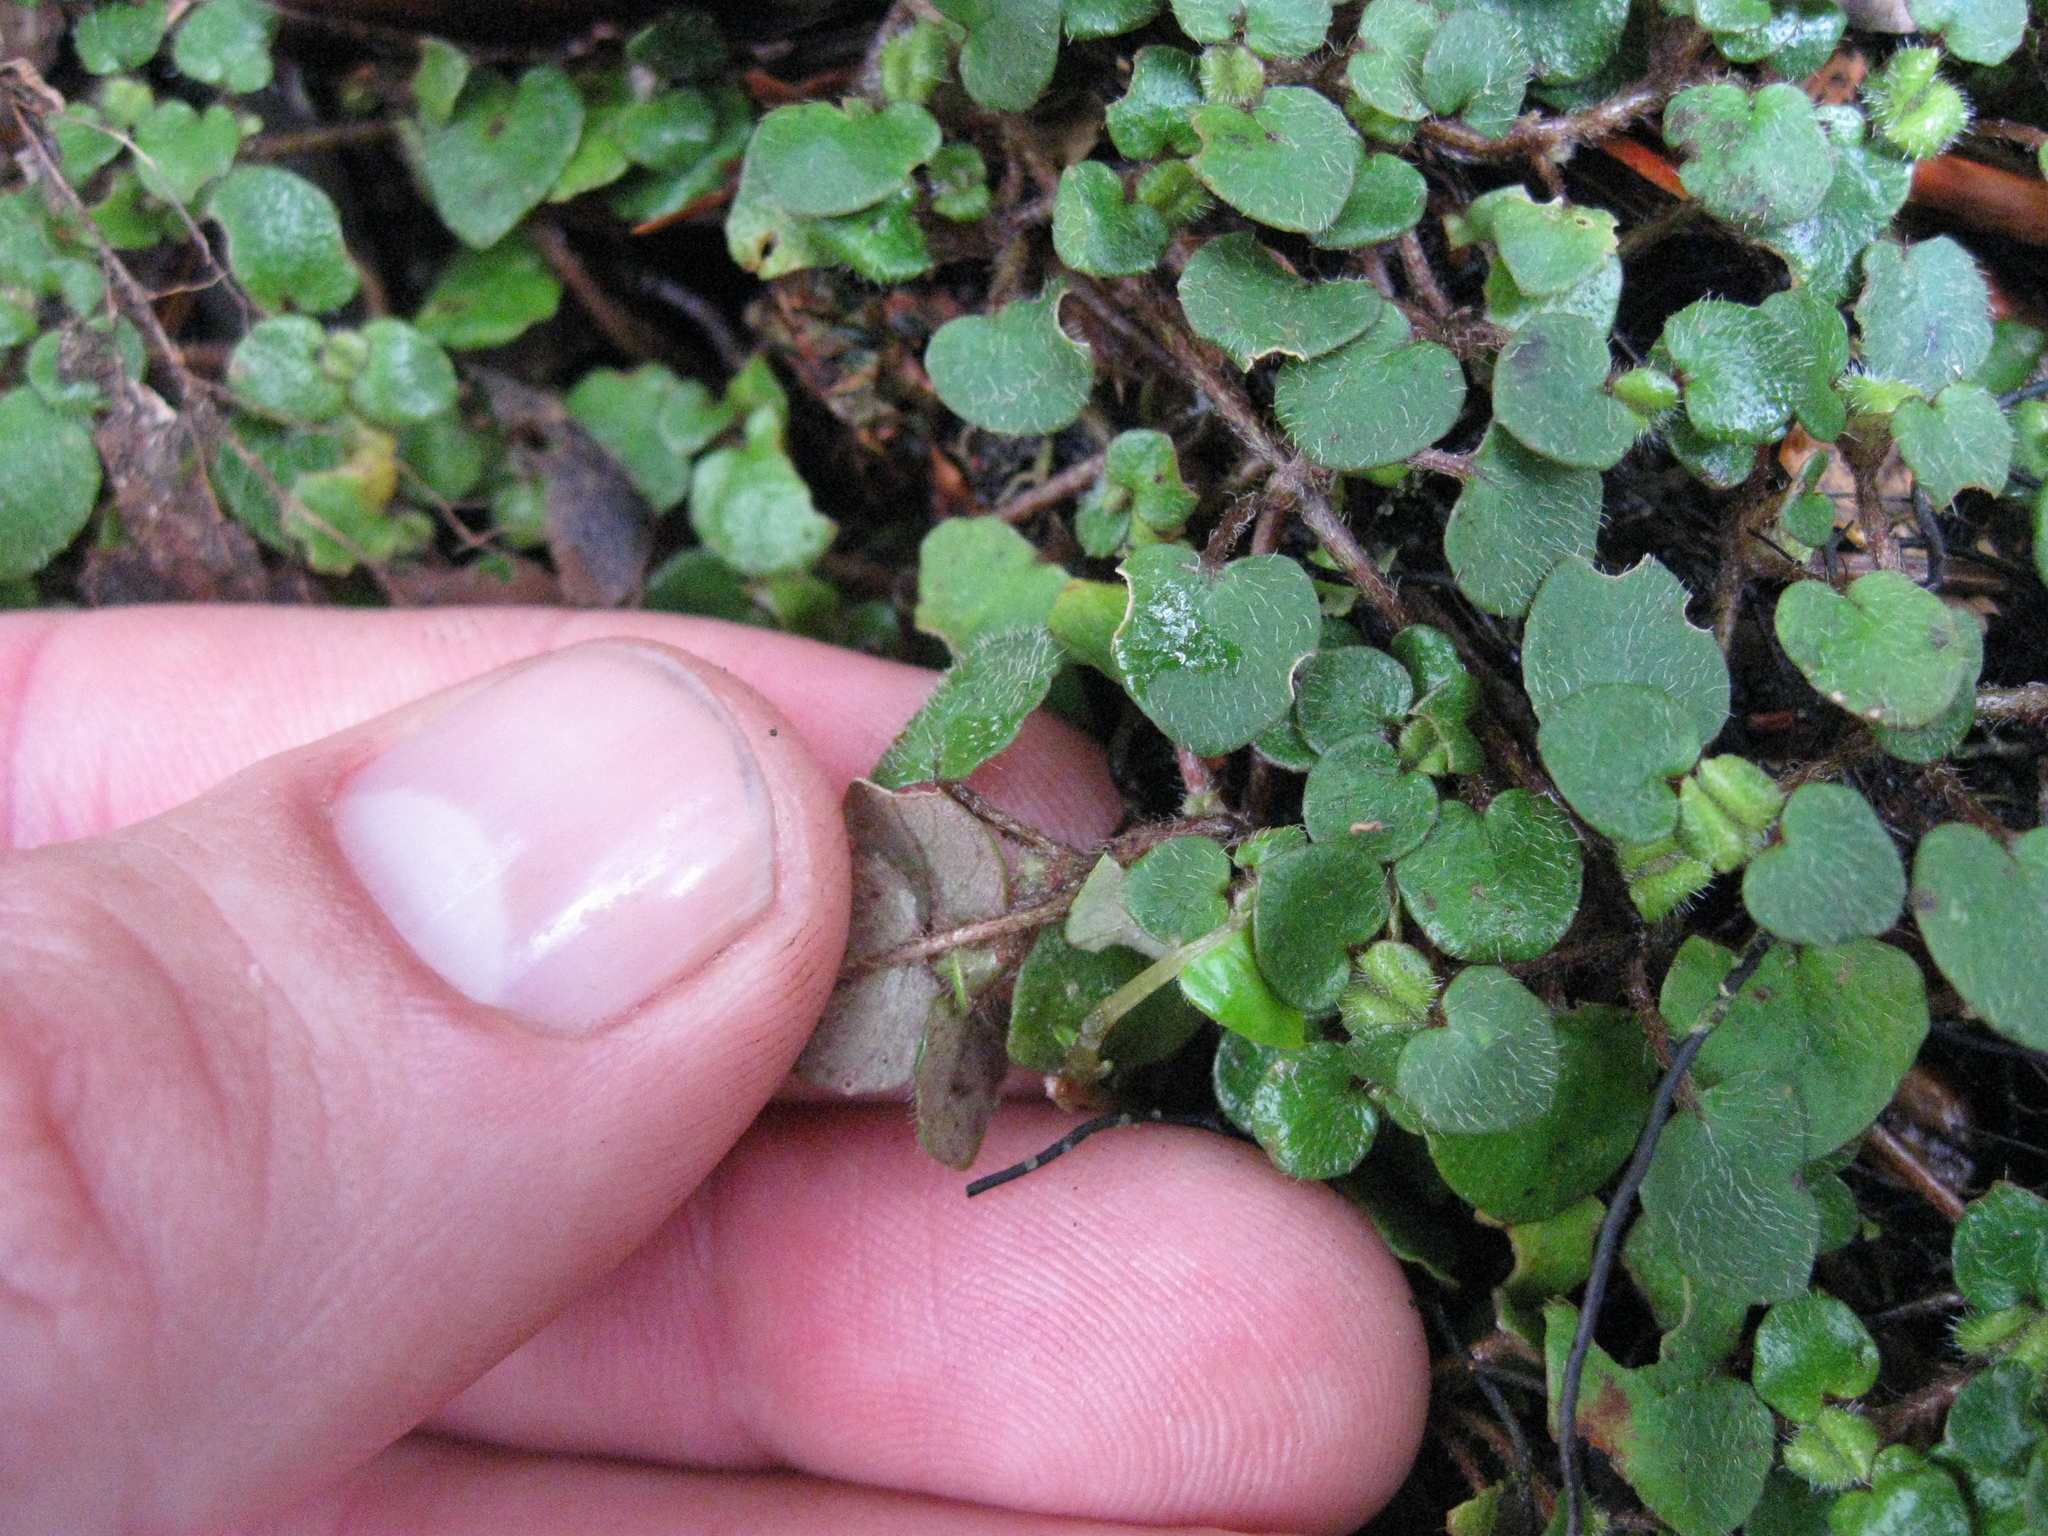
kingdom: Plantae
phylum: Tracheophyta
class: Magnoliopsida
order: Gentianales
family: Rubiaceae
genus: Nertera
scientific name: Nertera villosa
